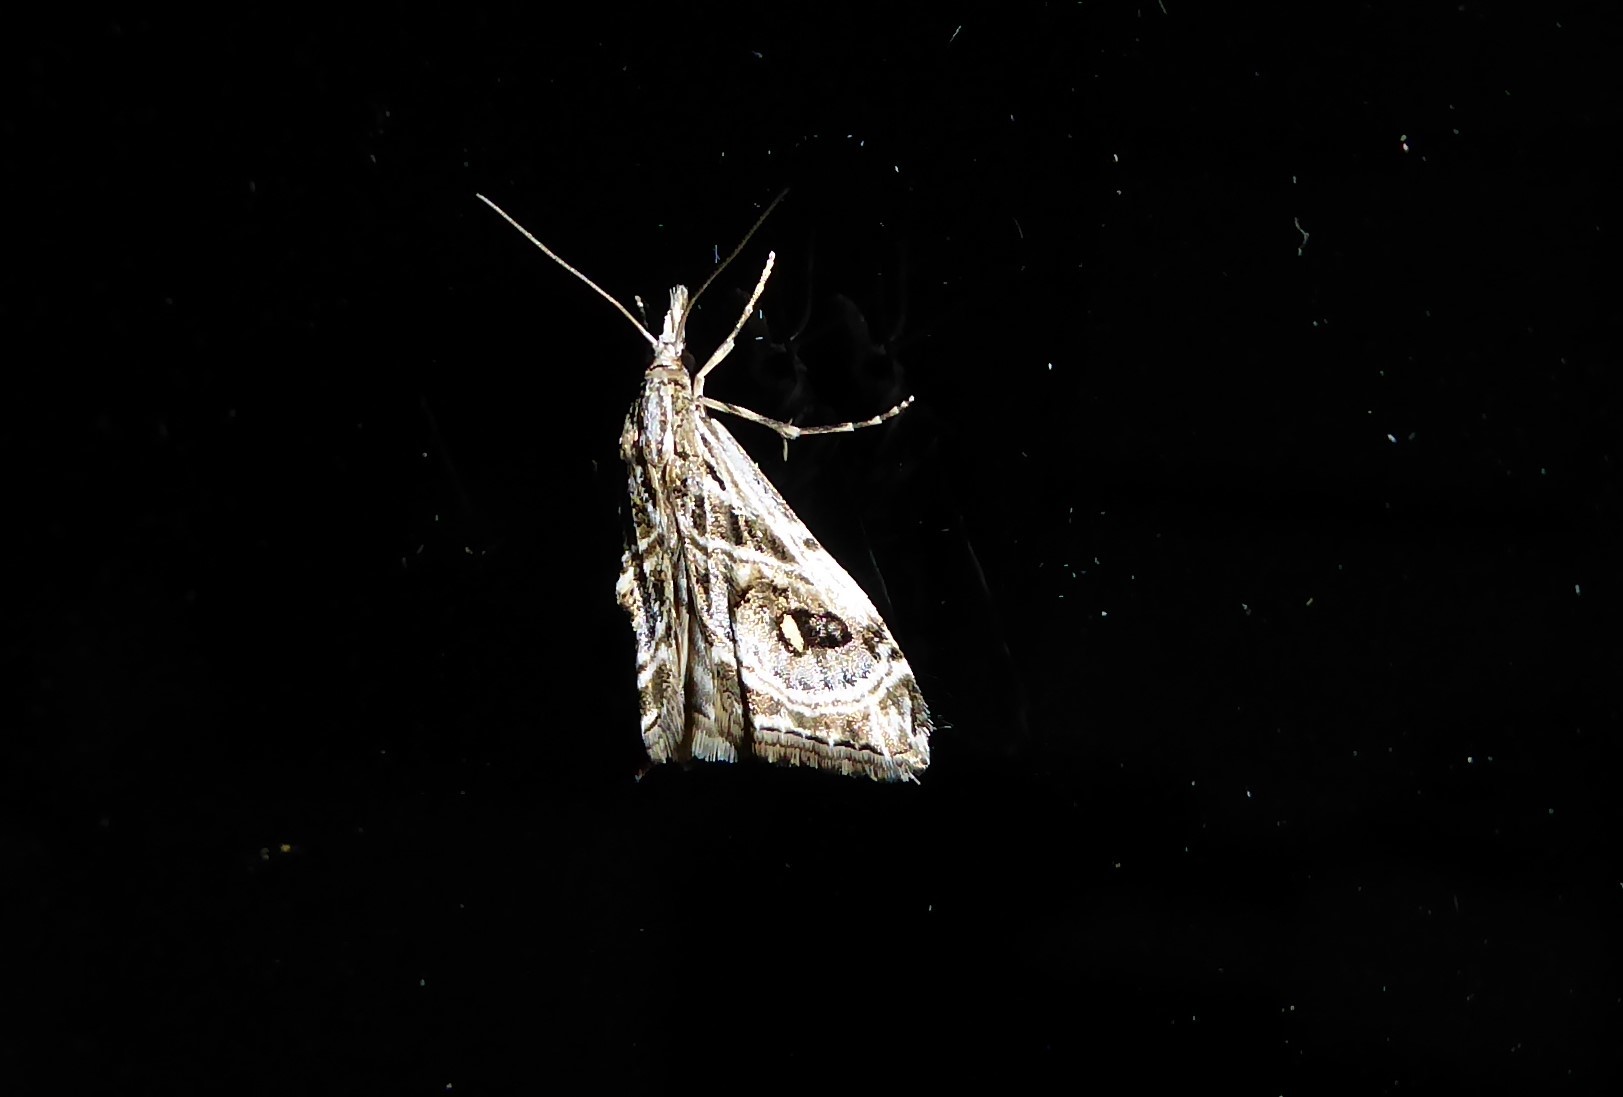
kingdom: Animalia
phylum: Arthropoda
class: Insecta
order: Lepidoptera
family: Crambidae
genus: Gadira
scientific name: Gadira acerella
